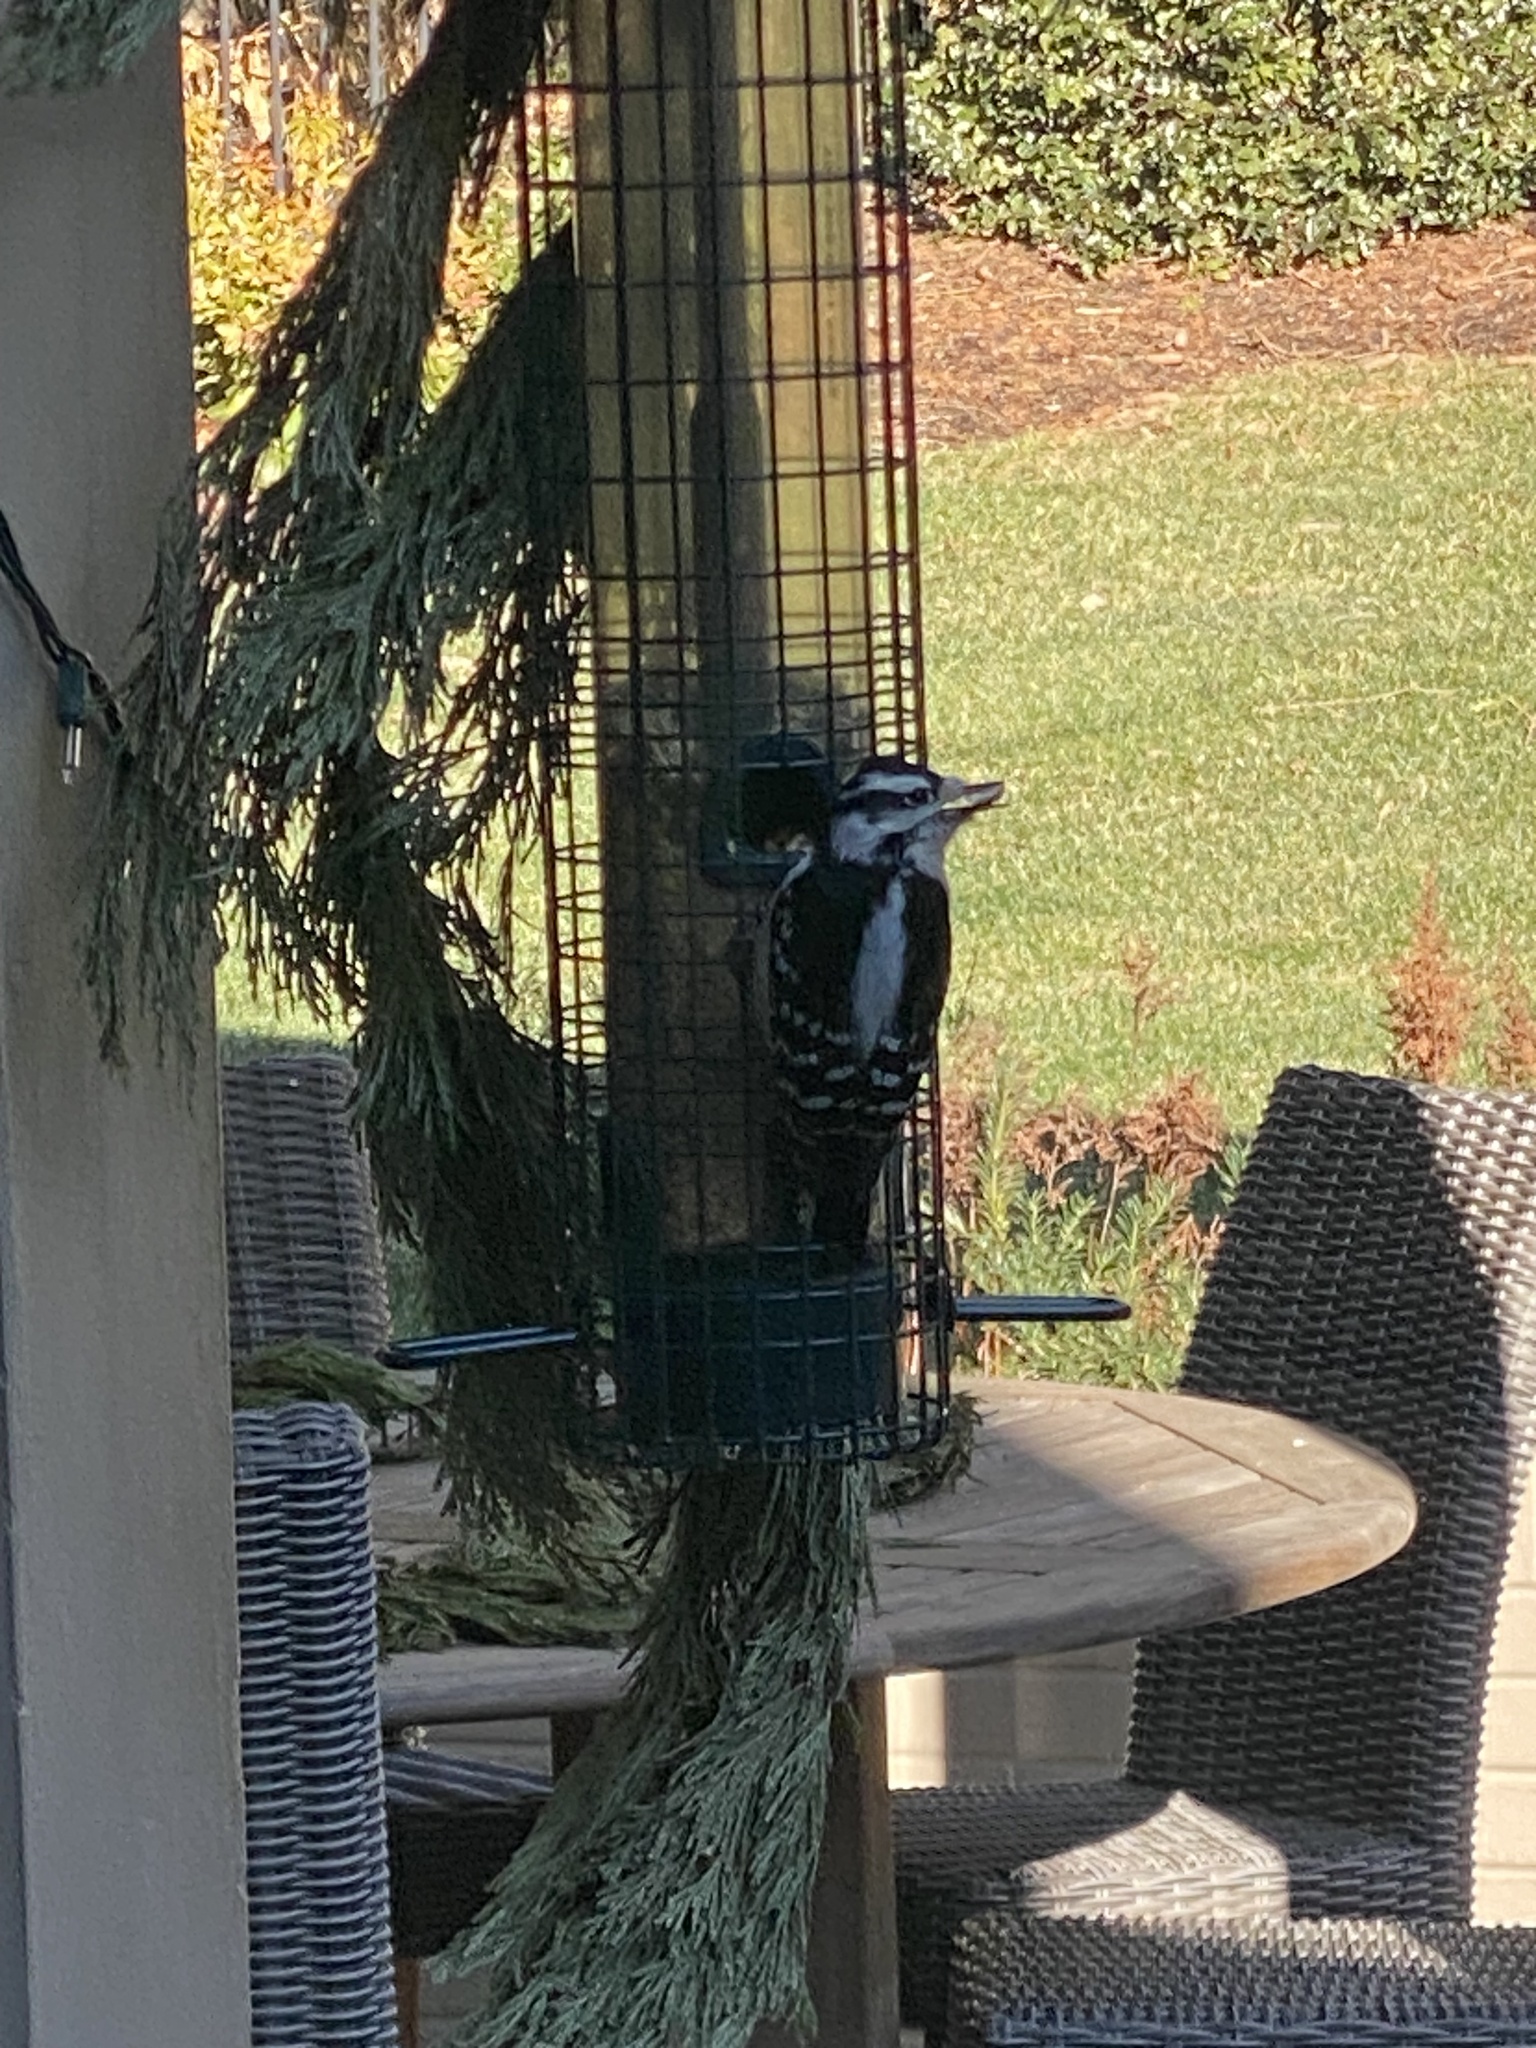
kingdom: Animalia
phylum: Chordata
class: Aves
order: Piciformes
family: Picidae
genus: Dryobates
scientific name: Dryobates pubescens
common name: Downy woodpecker
